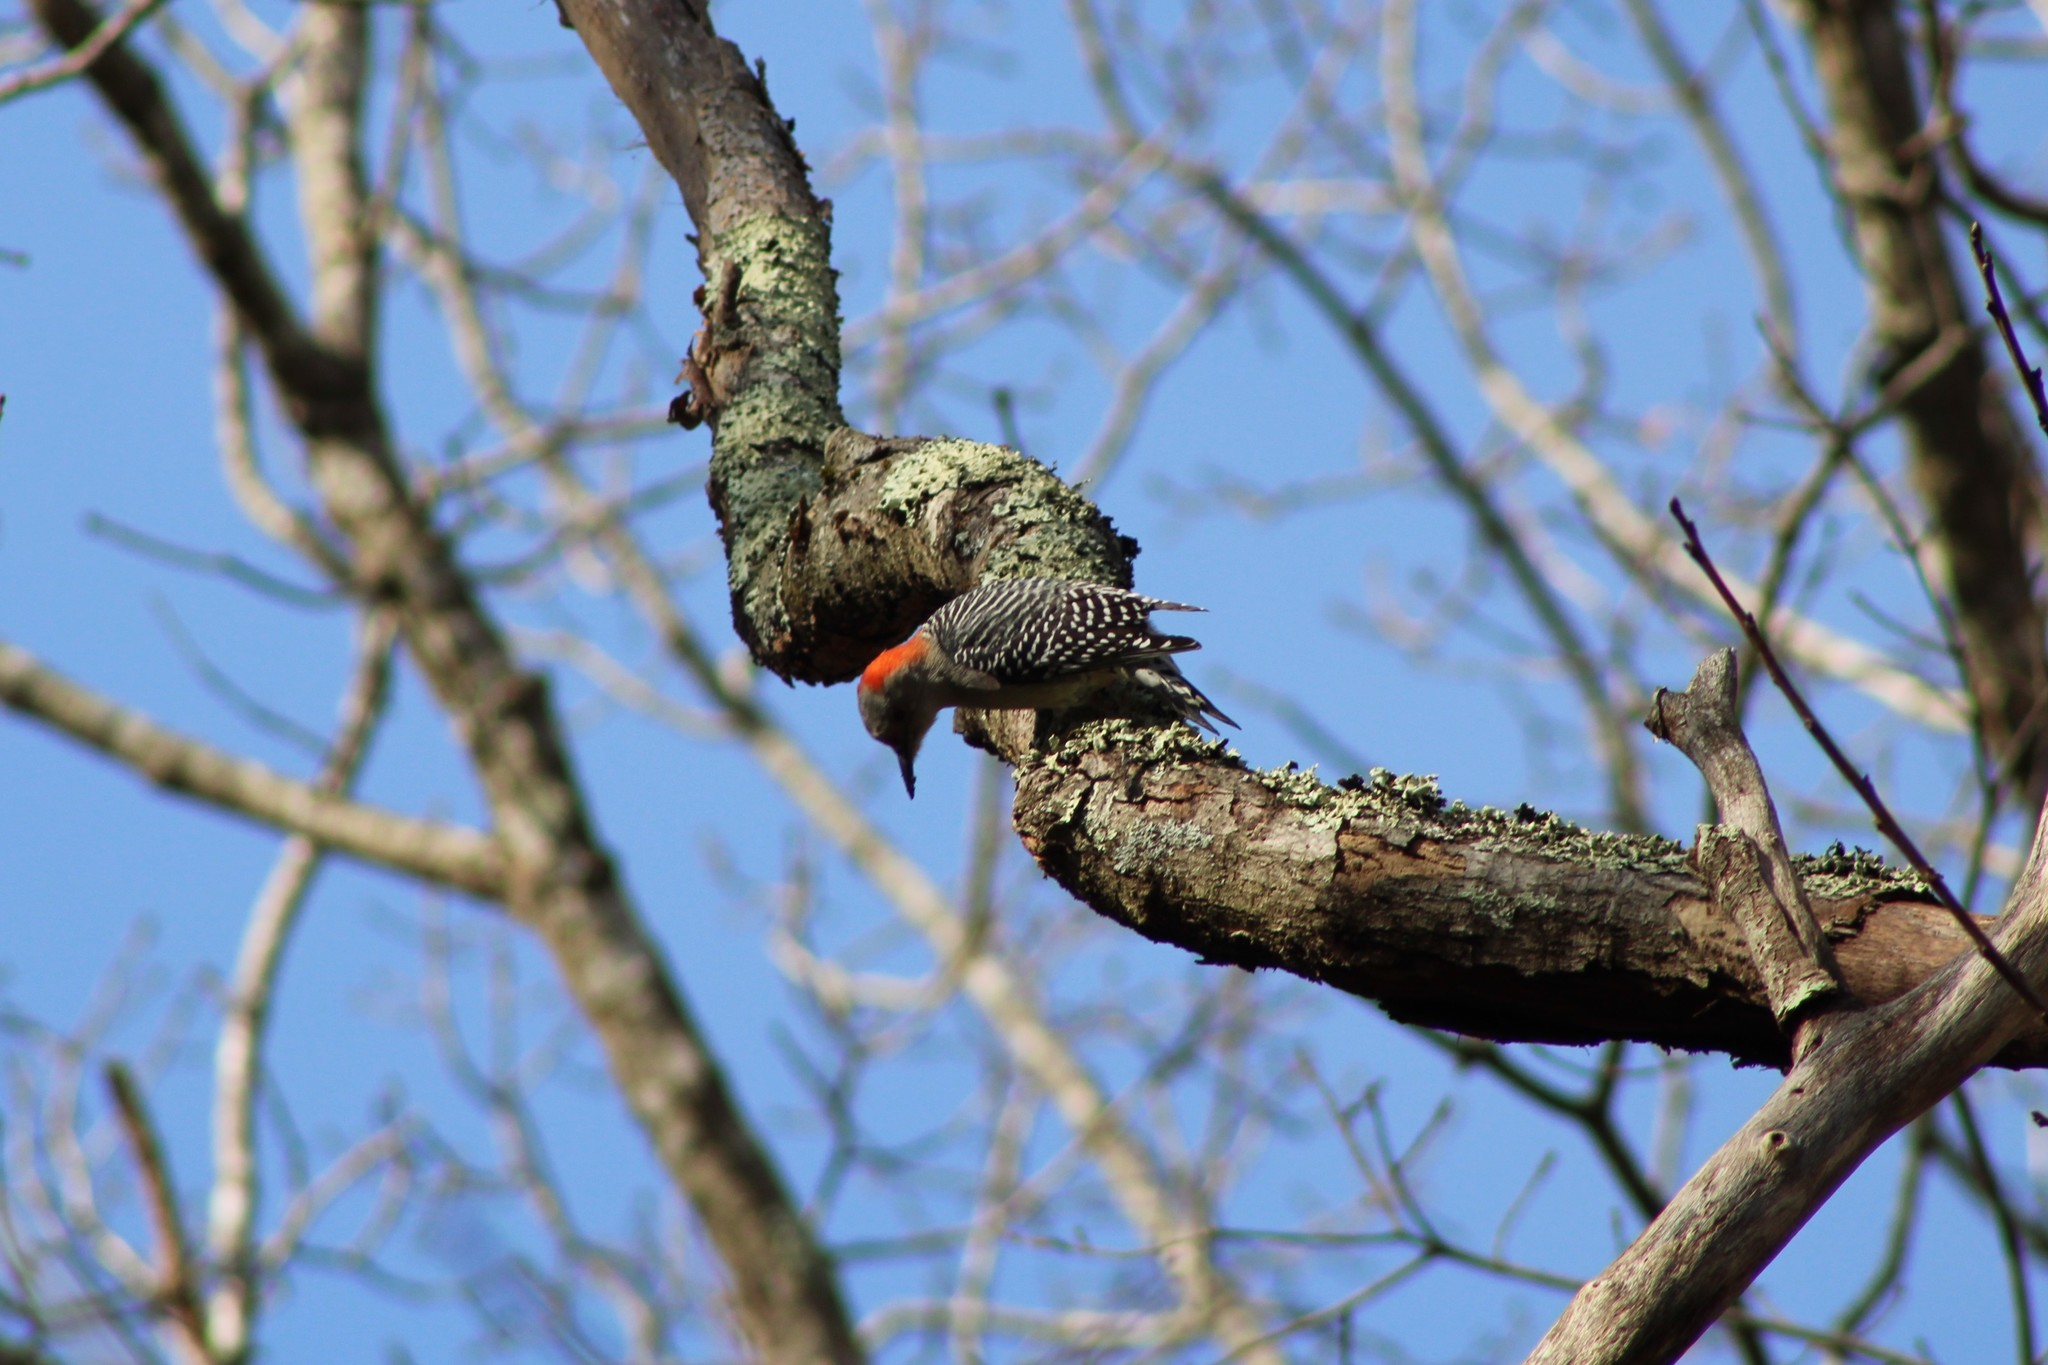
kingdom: Animalia
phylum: Chordata
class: Aves
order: Piciformes
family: Picidae
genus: Melanerpes
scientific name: Melanerpes carolinus
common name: Red-bellied woodpecker
